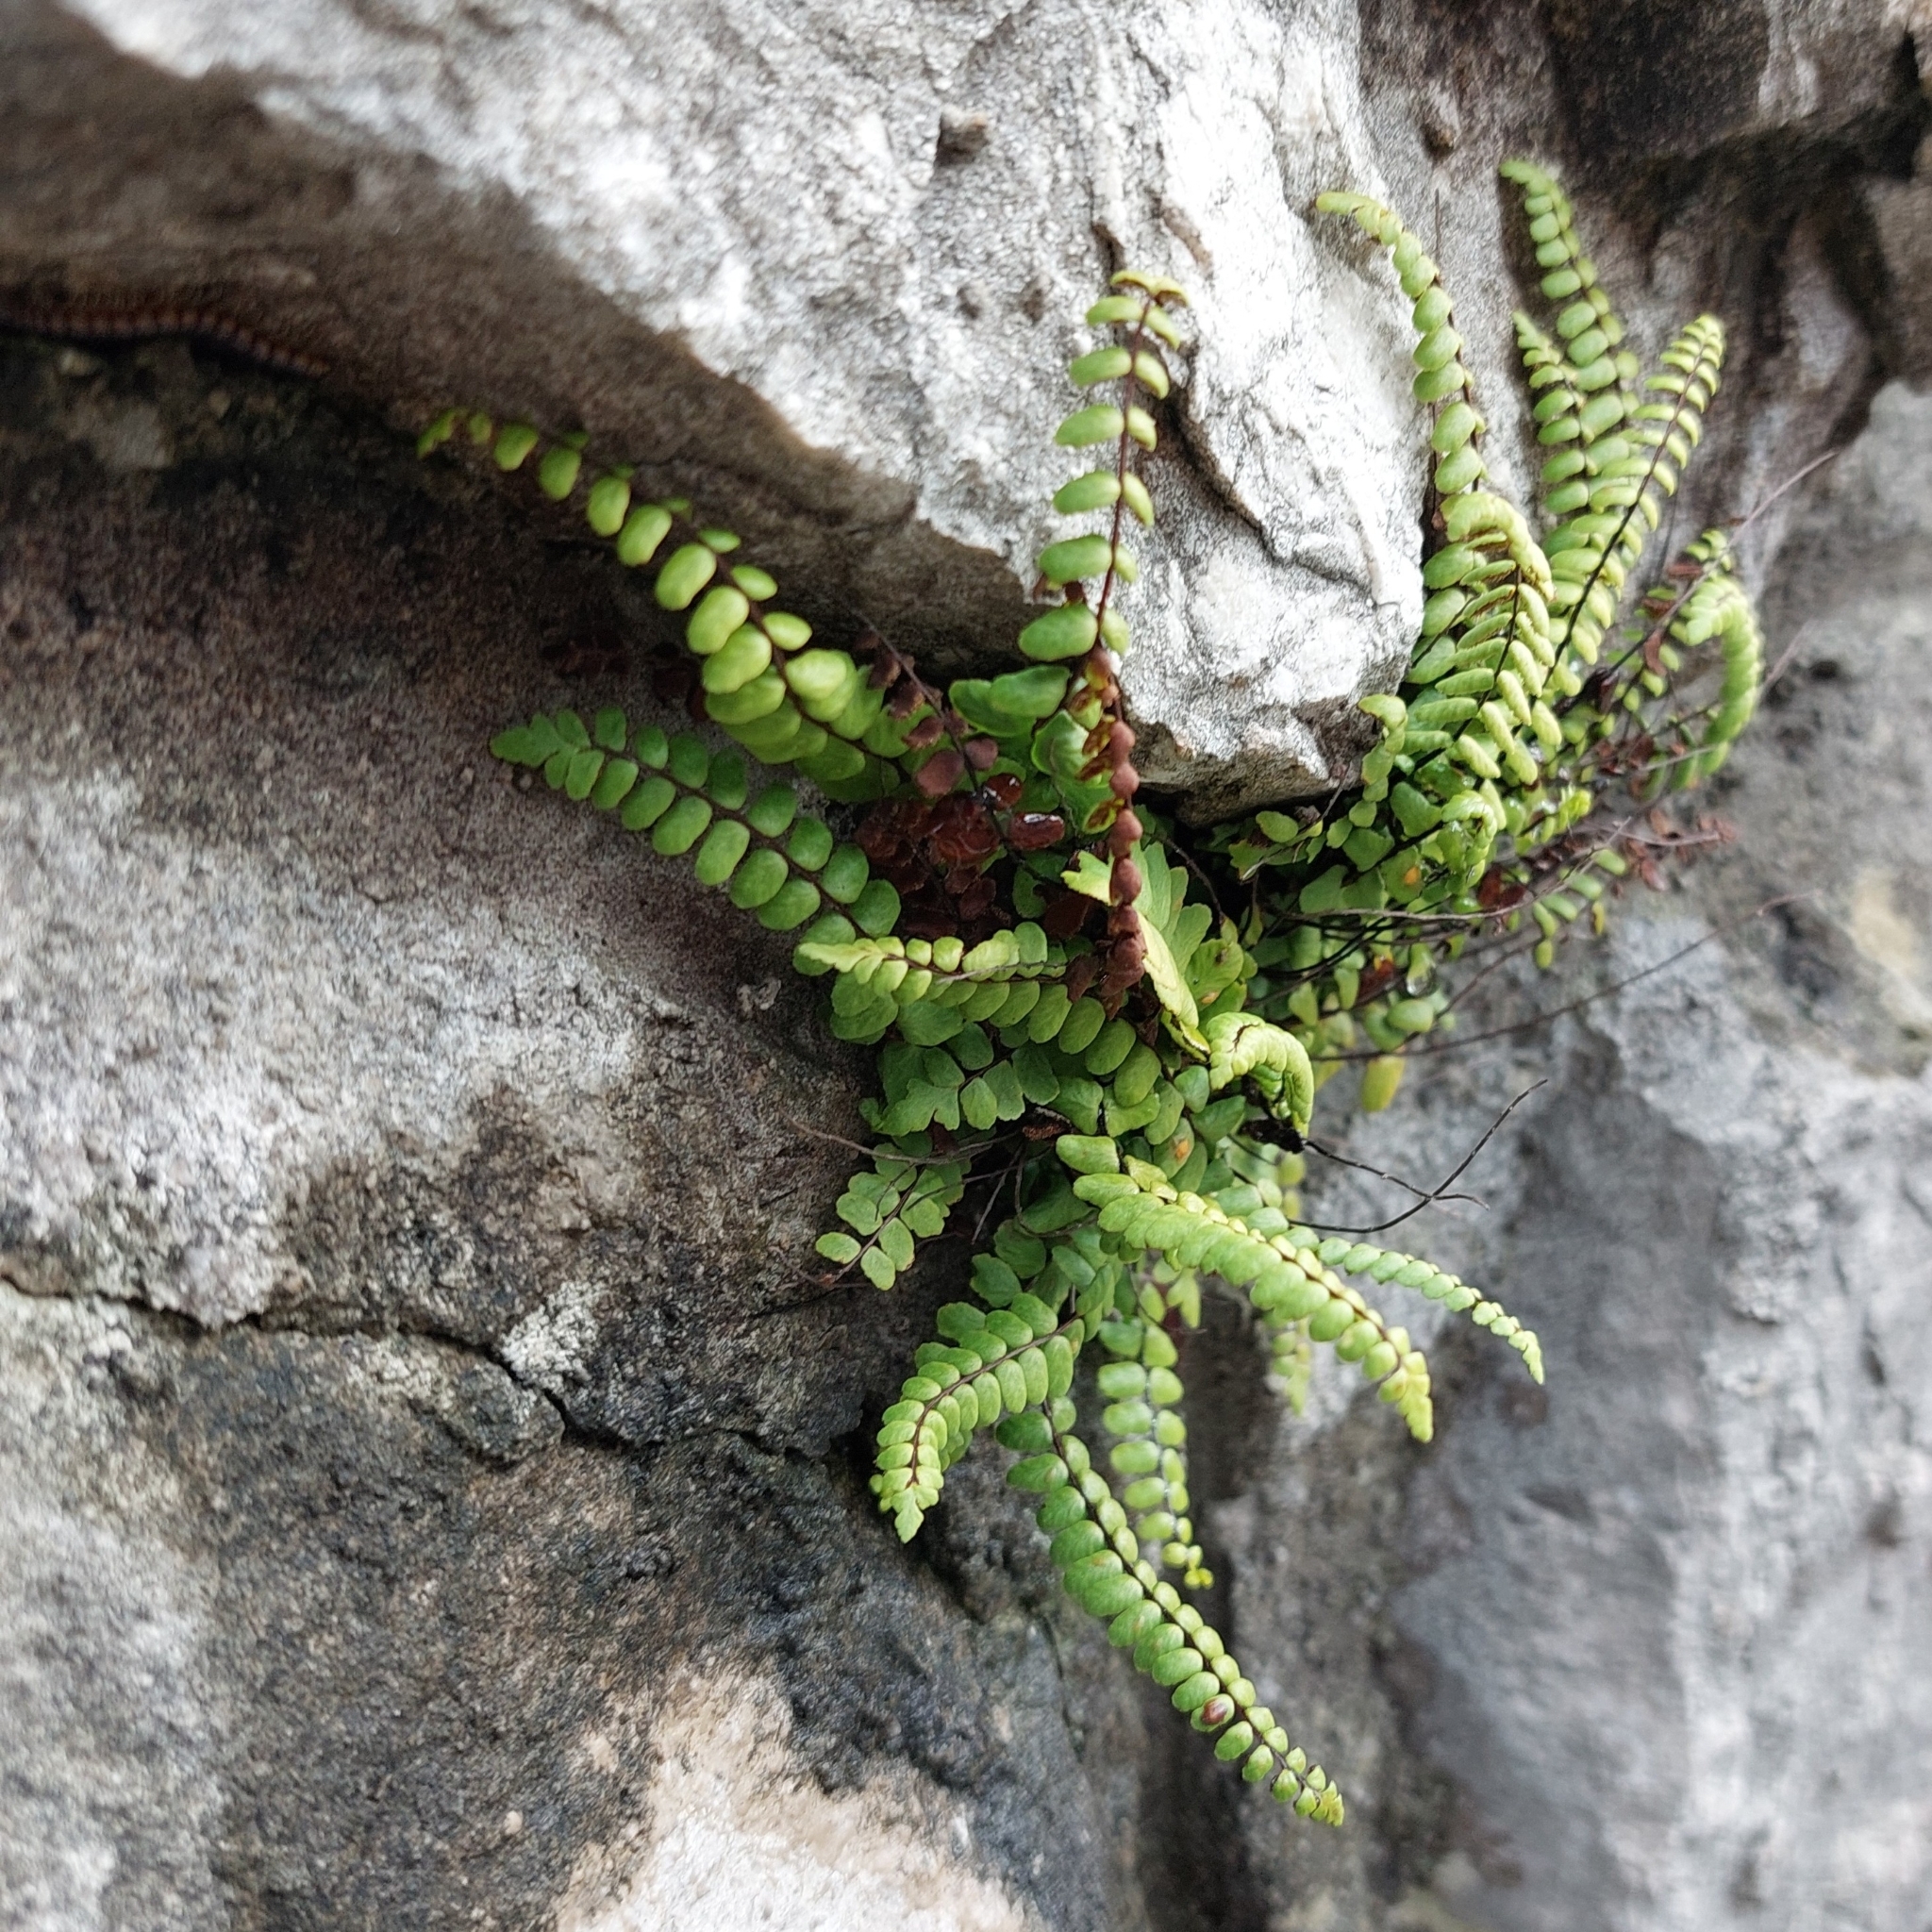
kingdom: Plantae
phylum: Tracheophyta
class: Polypodiopsida
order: Polypodiales
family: Aspleniaceae
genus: Asplenium
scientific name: Asplenium trichomanes
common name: Maidenhair spleenwort
